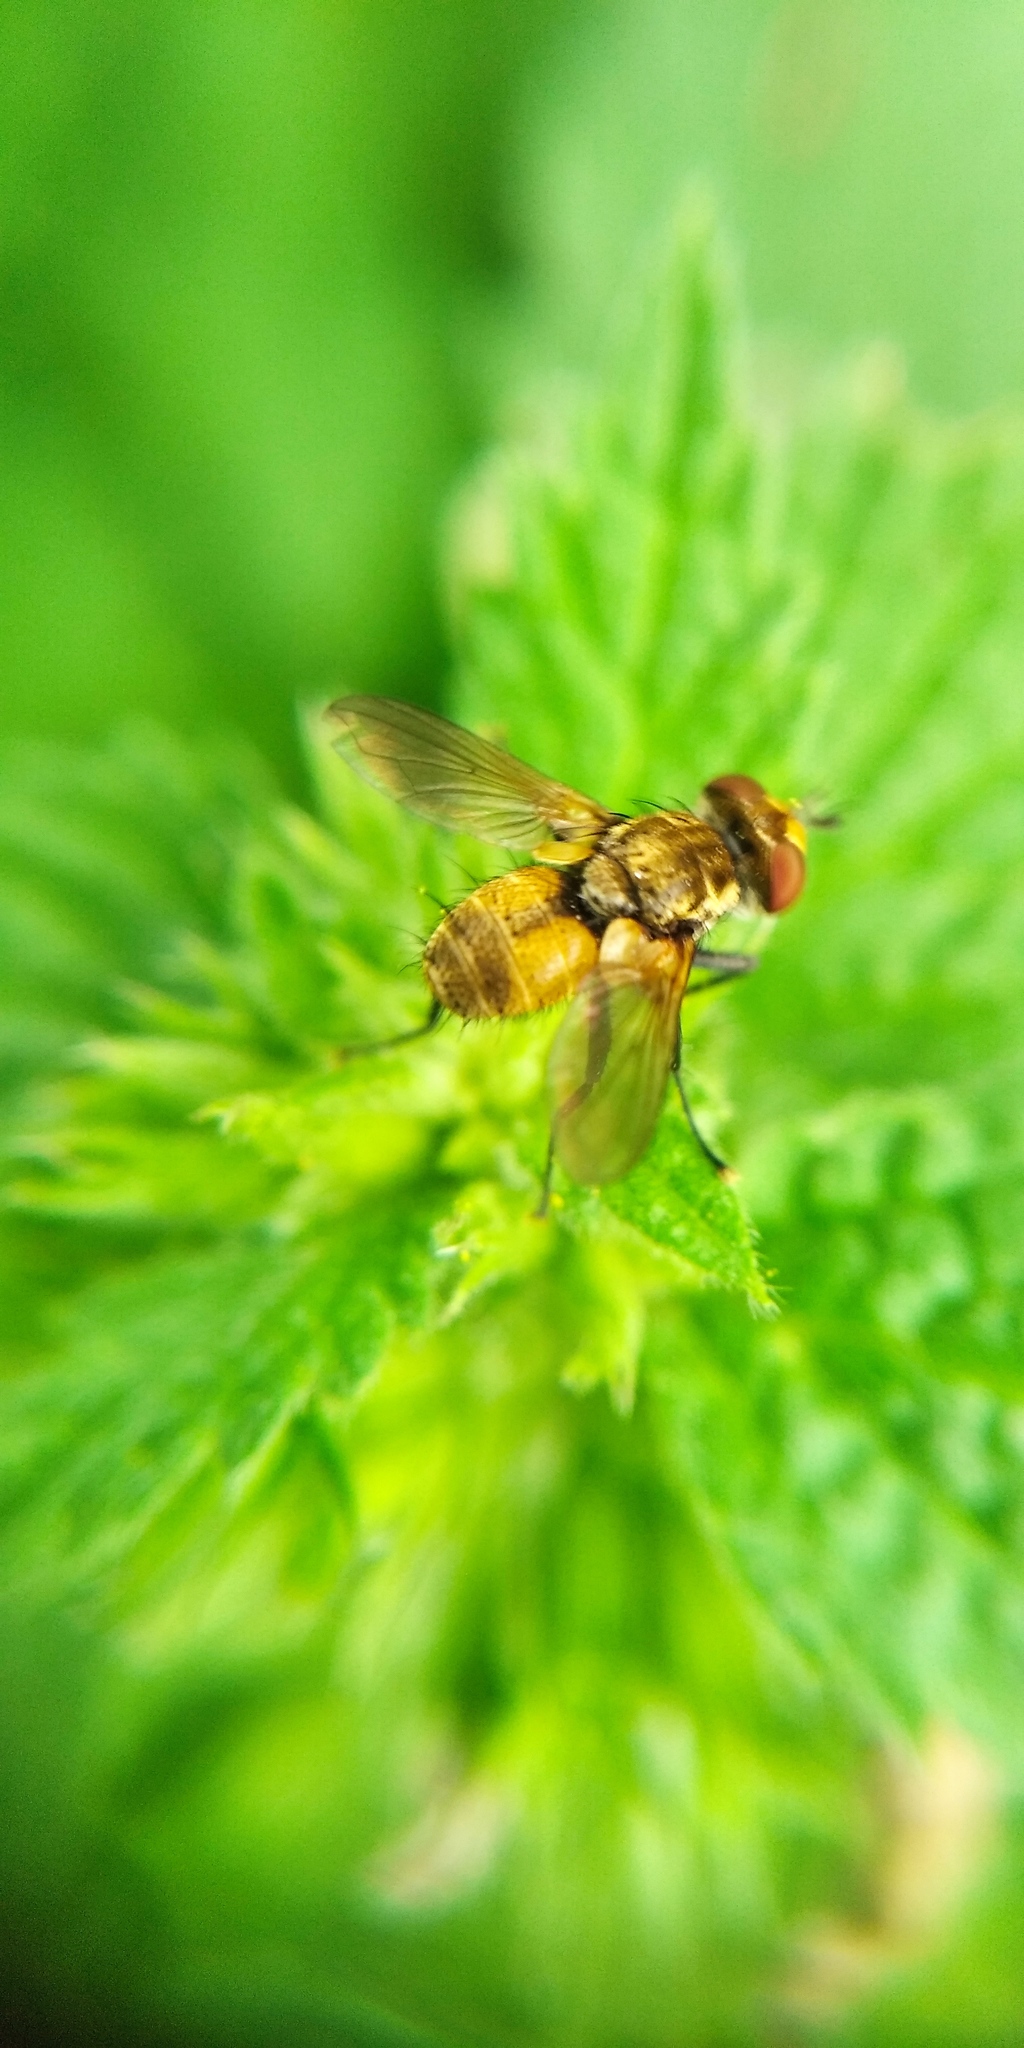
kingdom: Animalia
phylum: Arthropoda
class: Insecta
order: Diptera
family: Tachinidae
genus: Eliozeta
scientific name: Eliozeta pellucens
